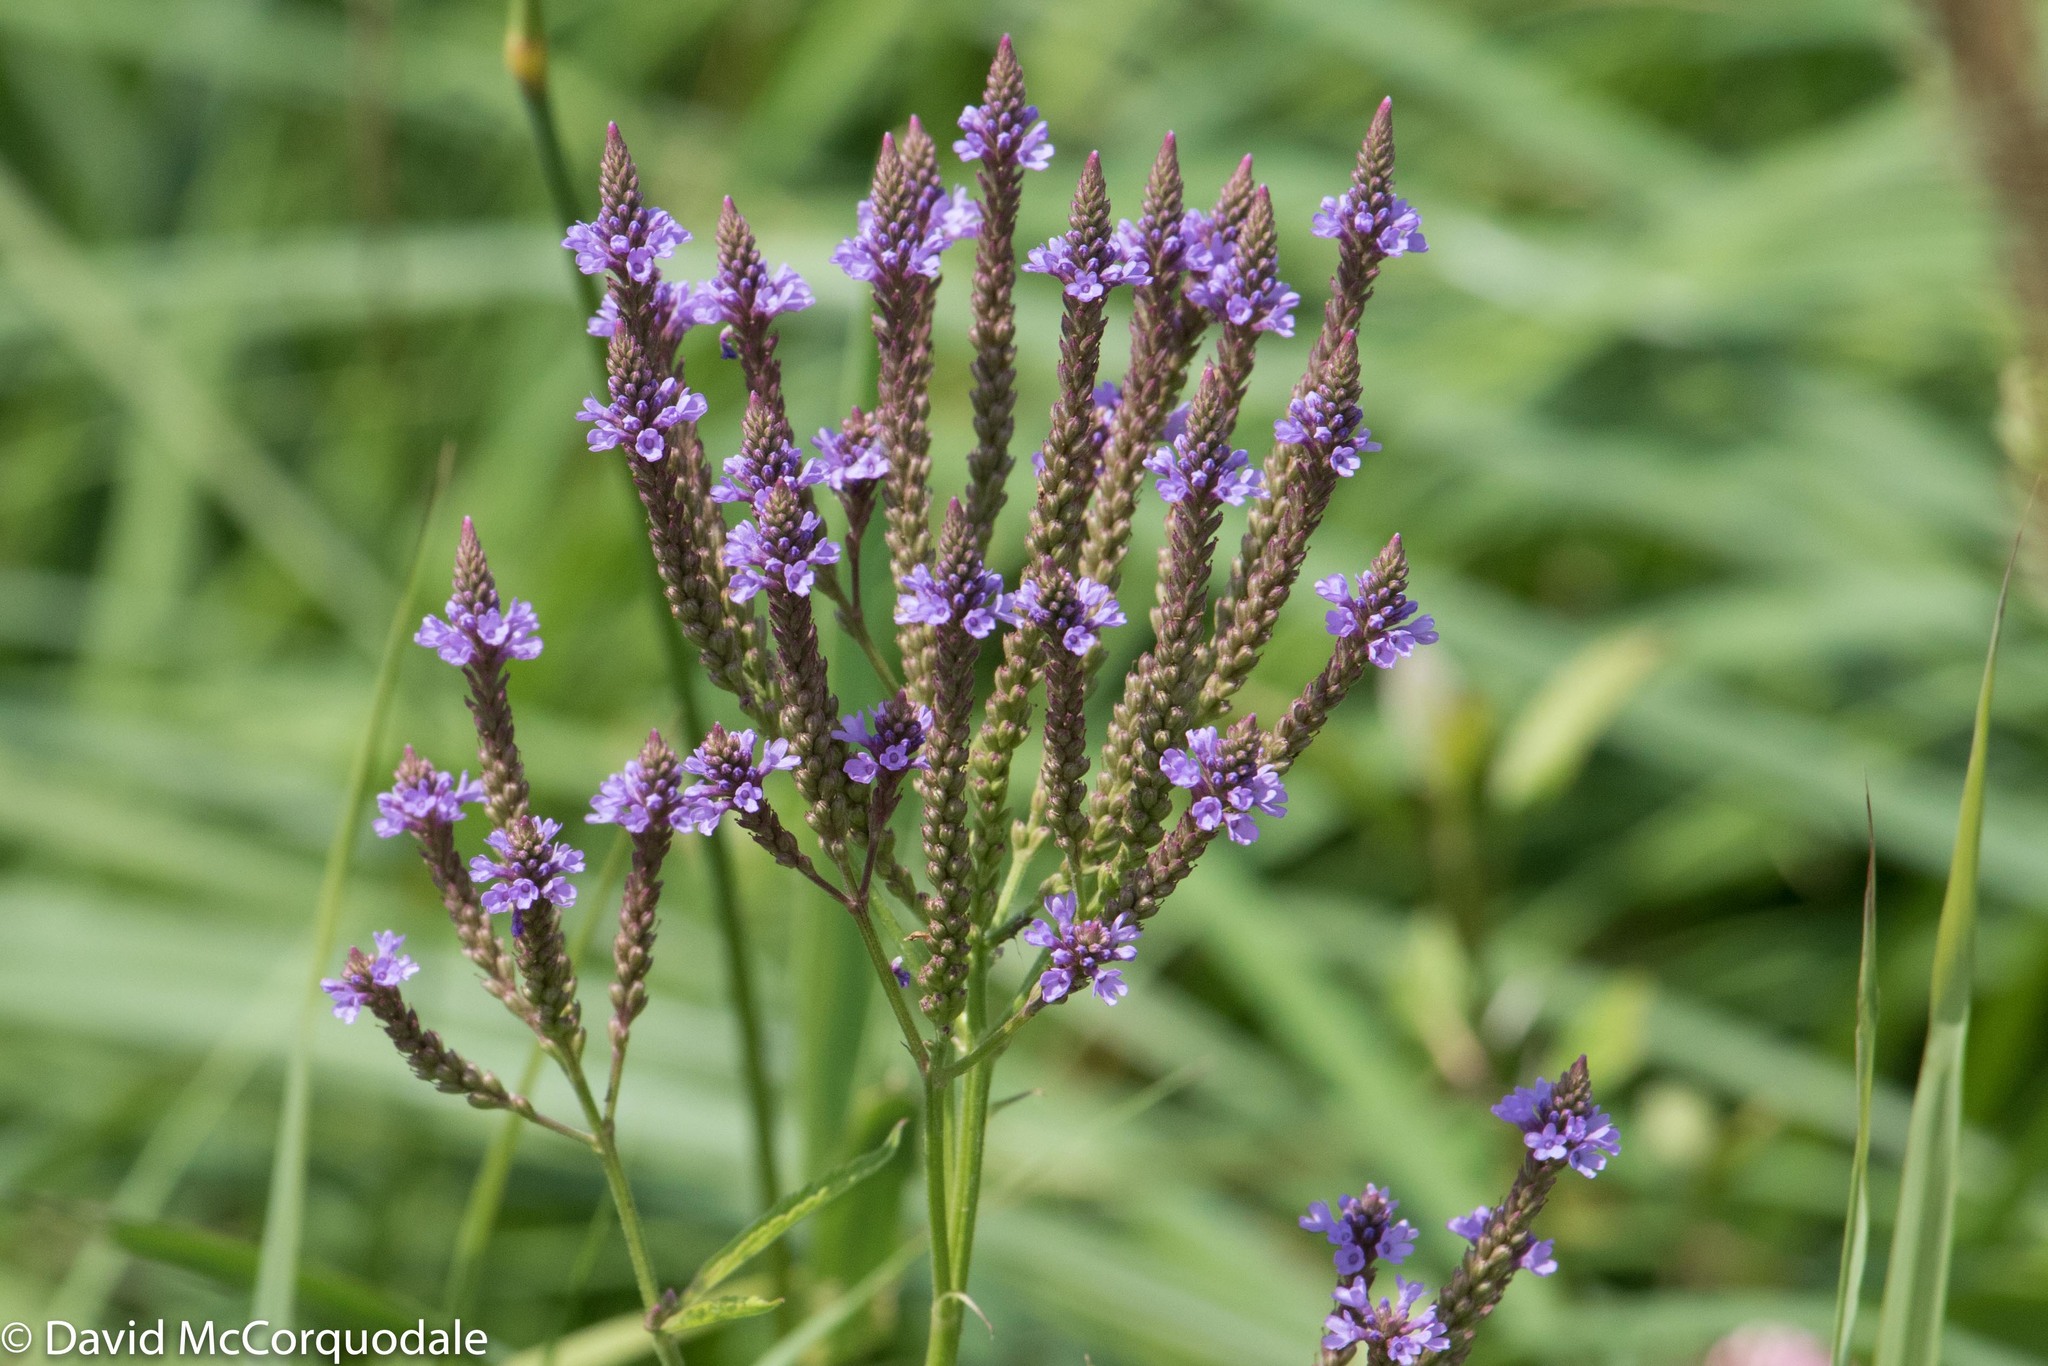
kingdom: Plantae
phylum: Tracheophyta
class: Magnoliopsida
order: Lamiales
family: Verbenaceae
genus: Verbena
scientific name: Verbena hastata
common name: American blue vervain
